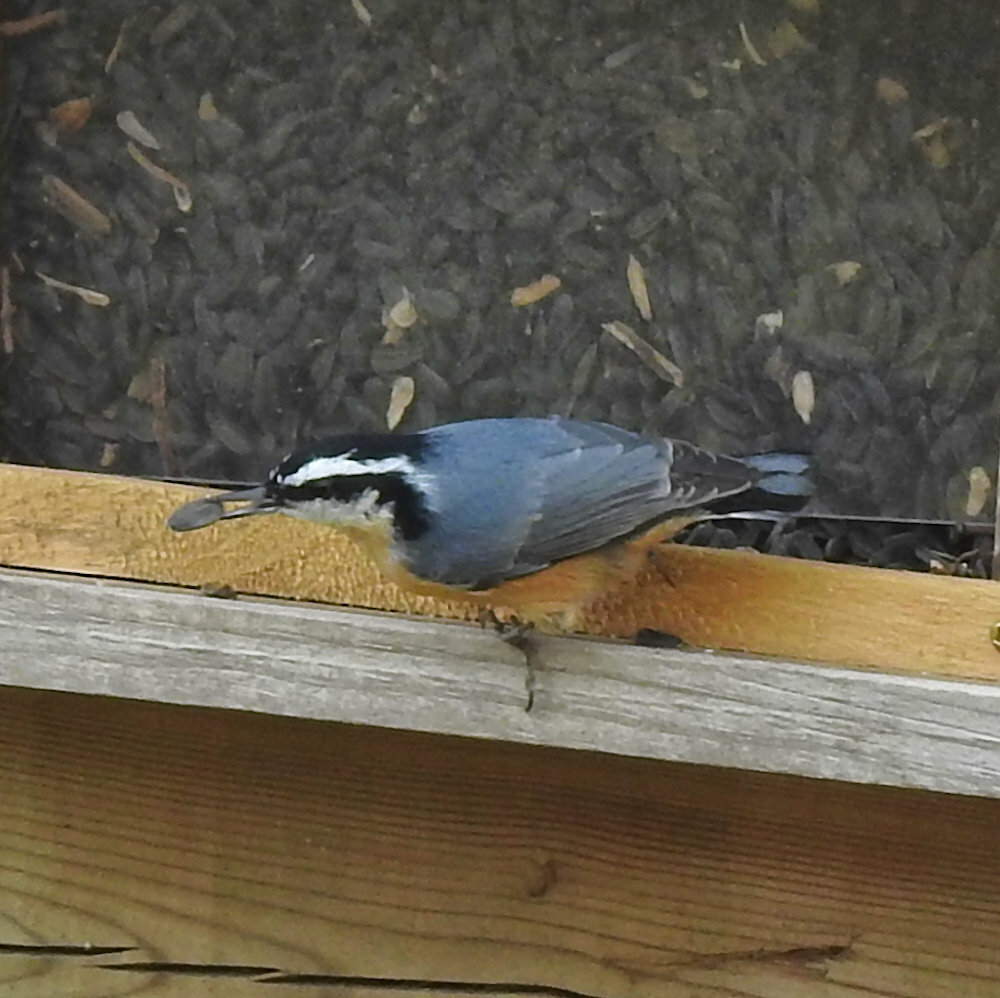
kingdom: Animalia
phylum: Chordata
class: Aves
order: Passeriformes
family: Sittidae
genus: Sitta
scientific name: Sitta canadensis
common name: Red-breasted nuthatch
